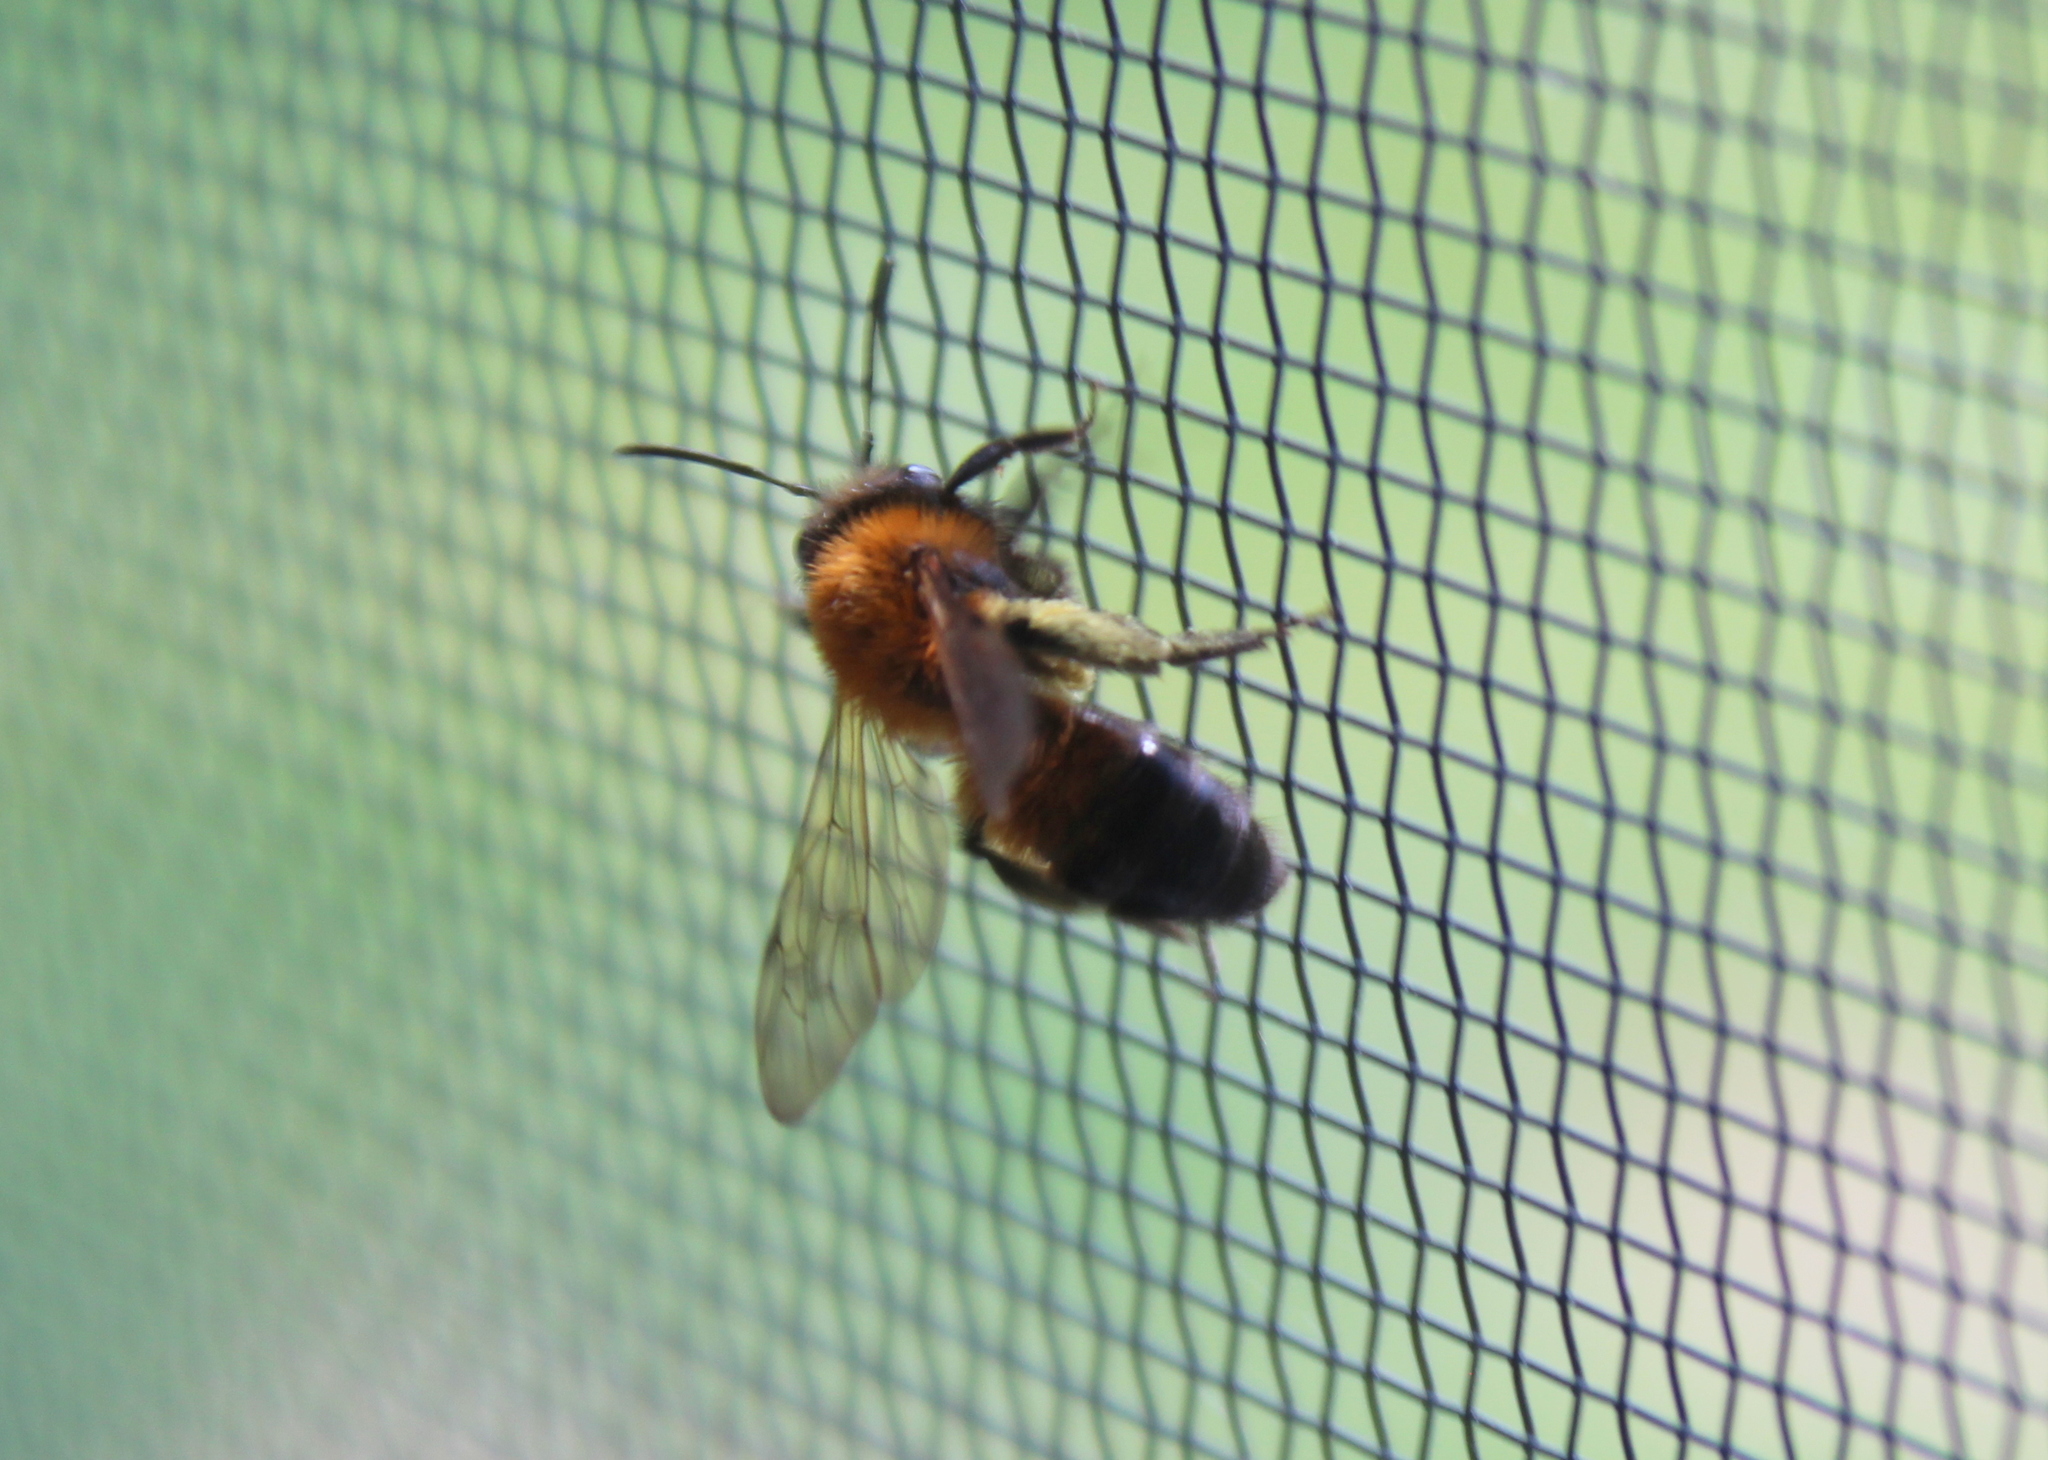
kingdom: Animalia
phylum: Arthropoda
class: Insecta
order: Hymenoptera
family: Andrenidae
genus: Andrena
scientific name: Andrena milwaukeensis
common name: Milwaukee mining bee
